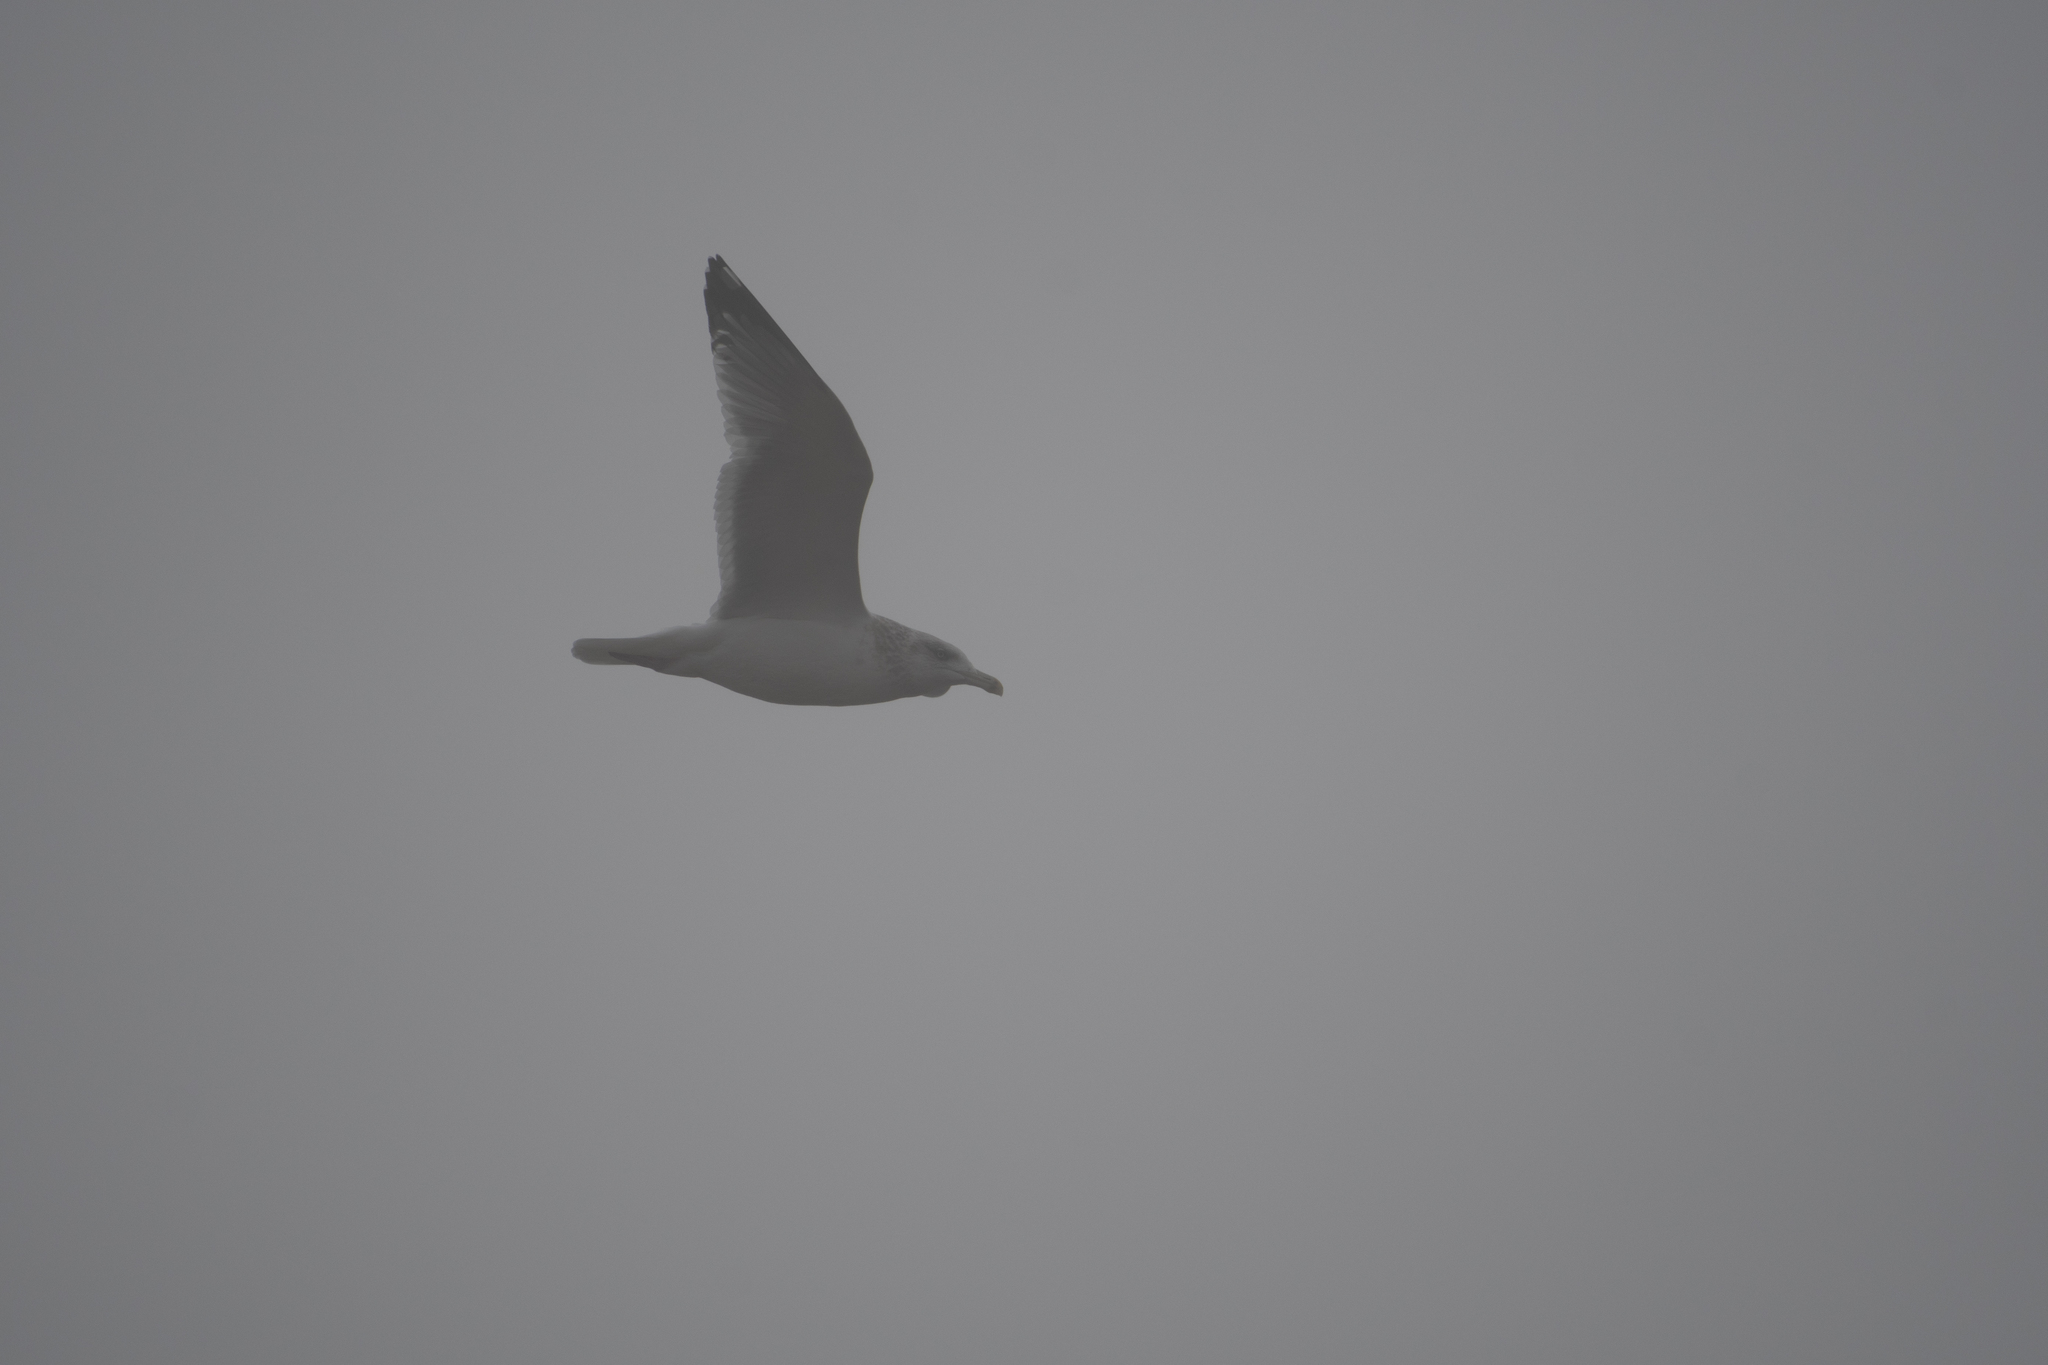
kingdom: Animalia
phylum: Chordata
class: Aves
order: Charadriiformes
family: Laridae
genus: Larus
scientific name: Larus argentatus
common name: Herring gull
